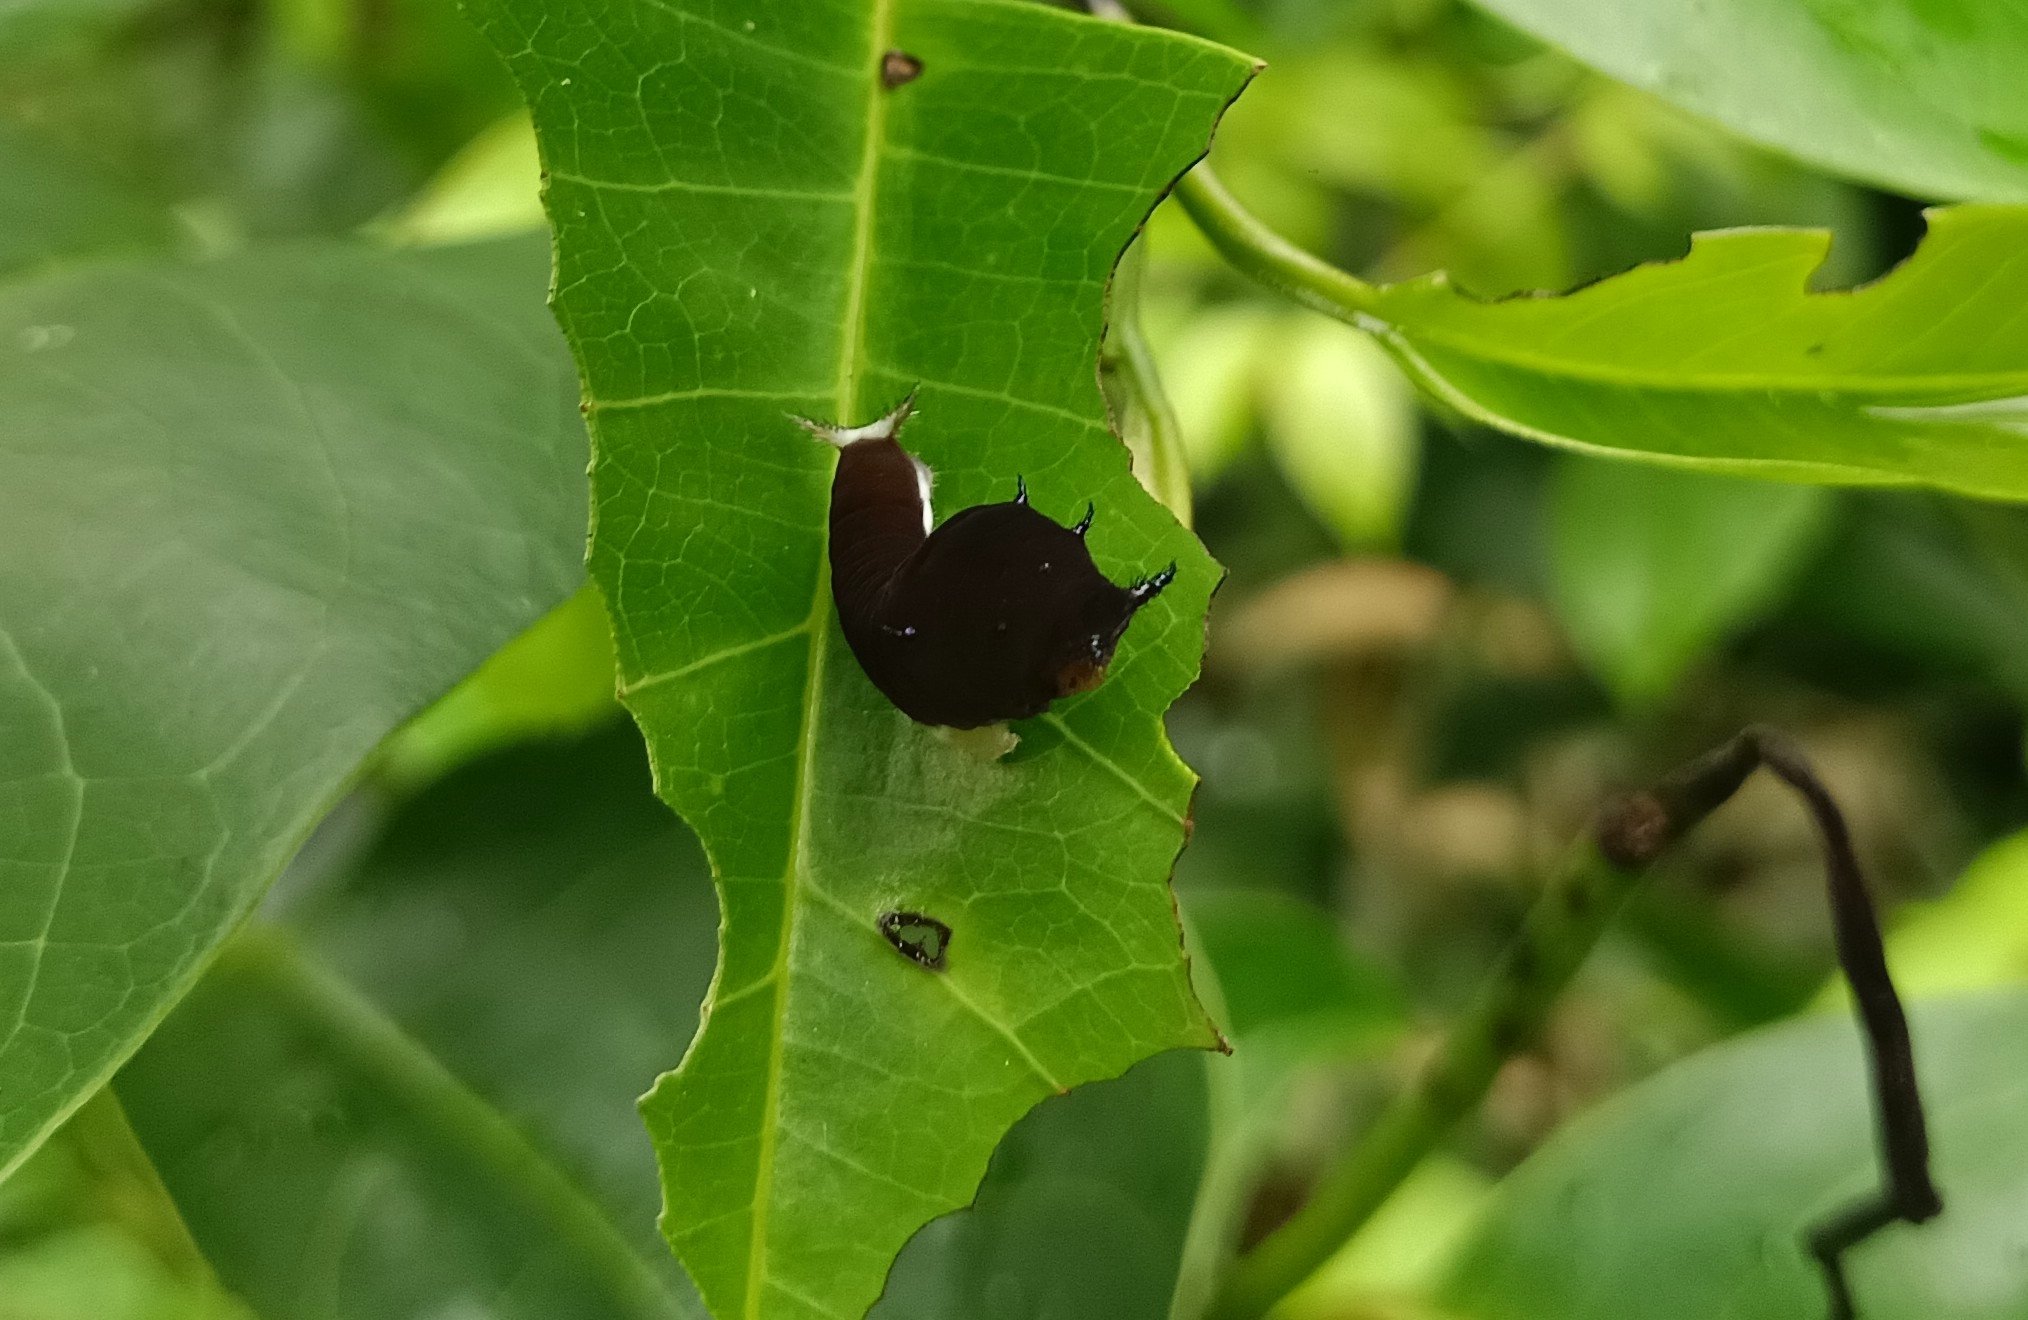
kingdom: Animalia
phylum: Arthropoda
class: Insecta
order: Lepidoptera
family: Papilionidae
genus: Graphium
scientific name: Graphium doson
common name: Common jay
